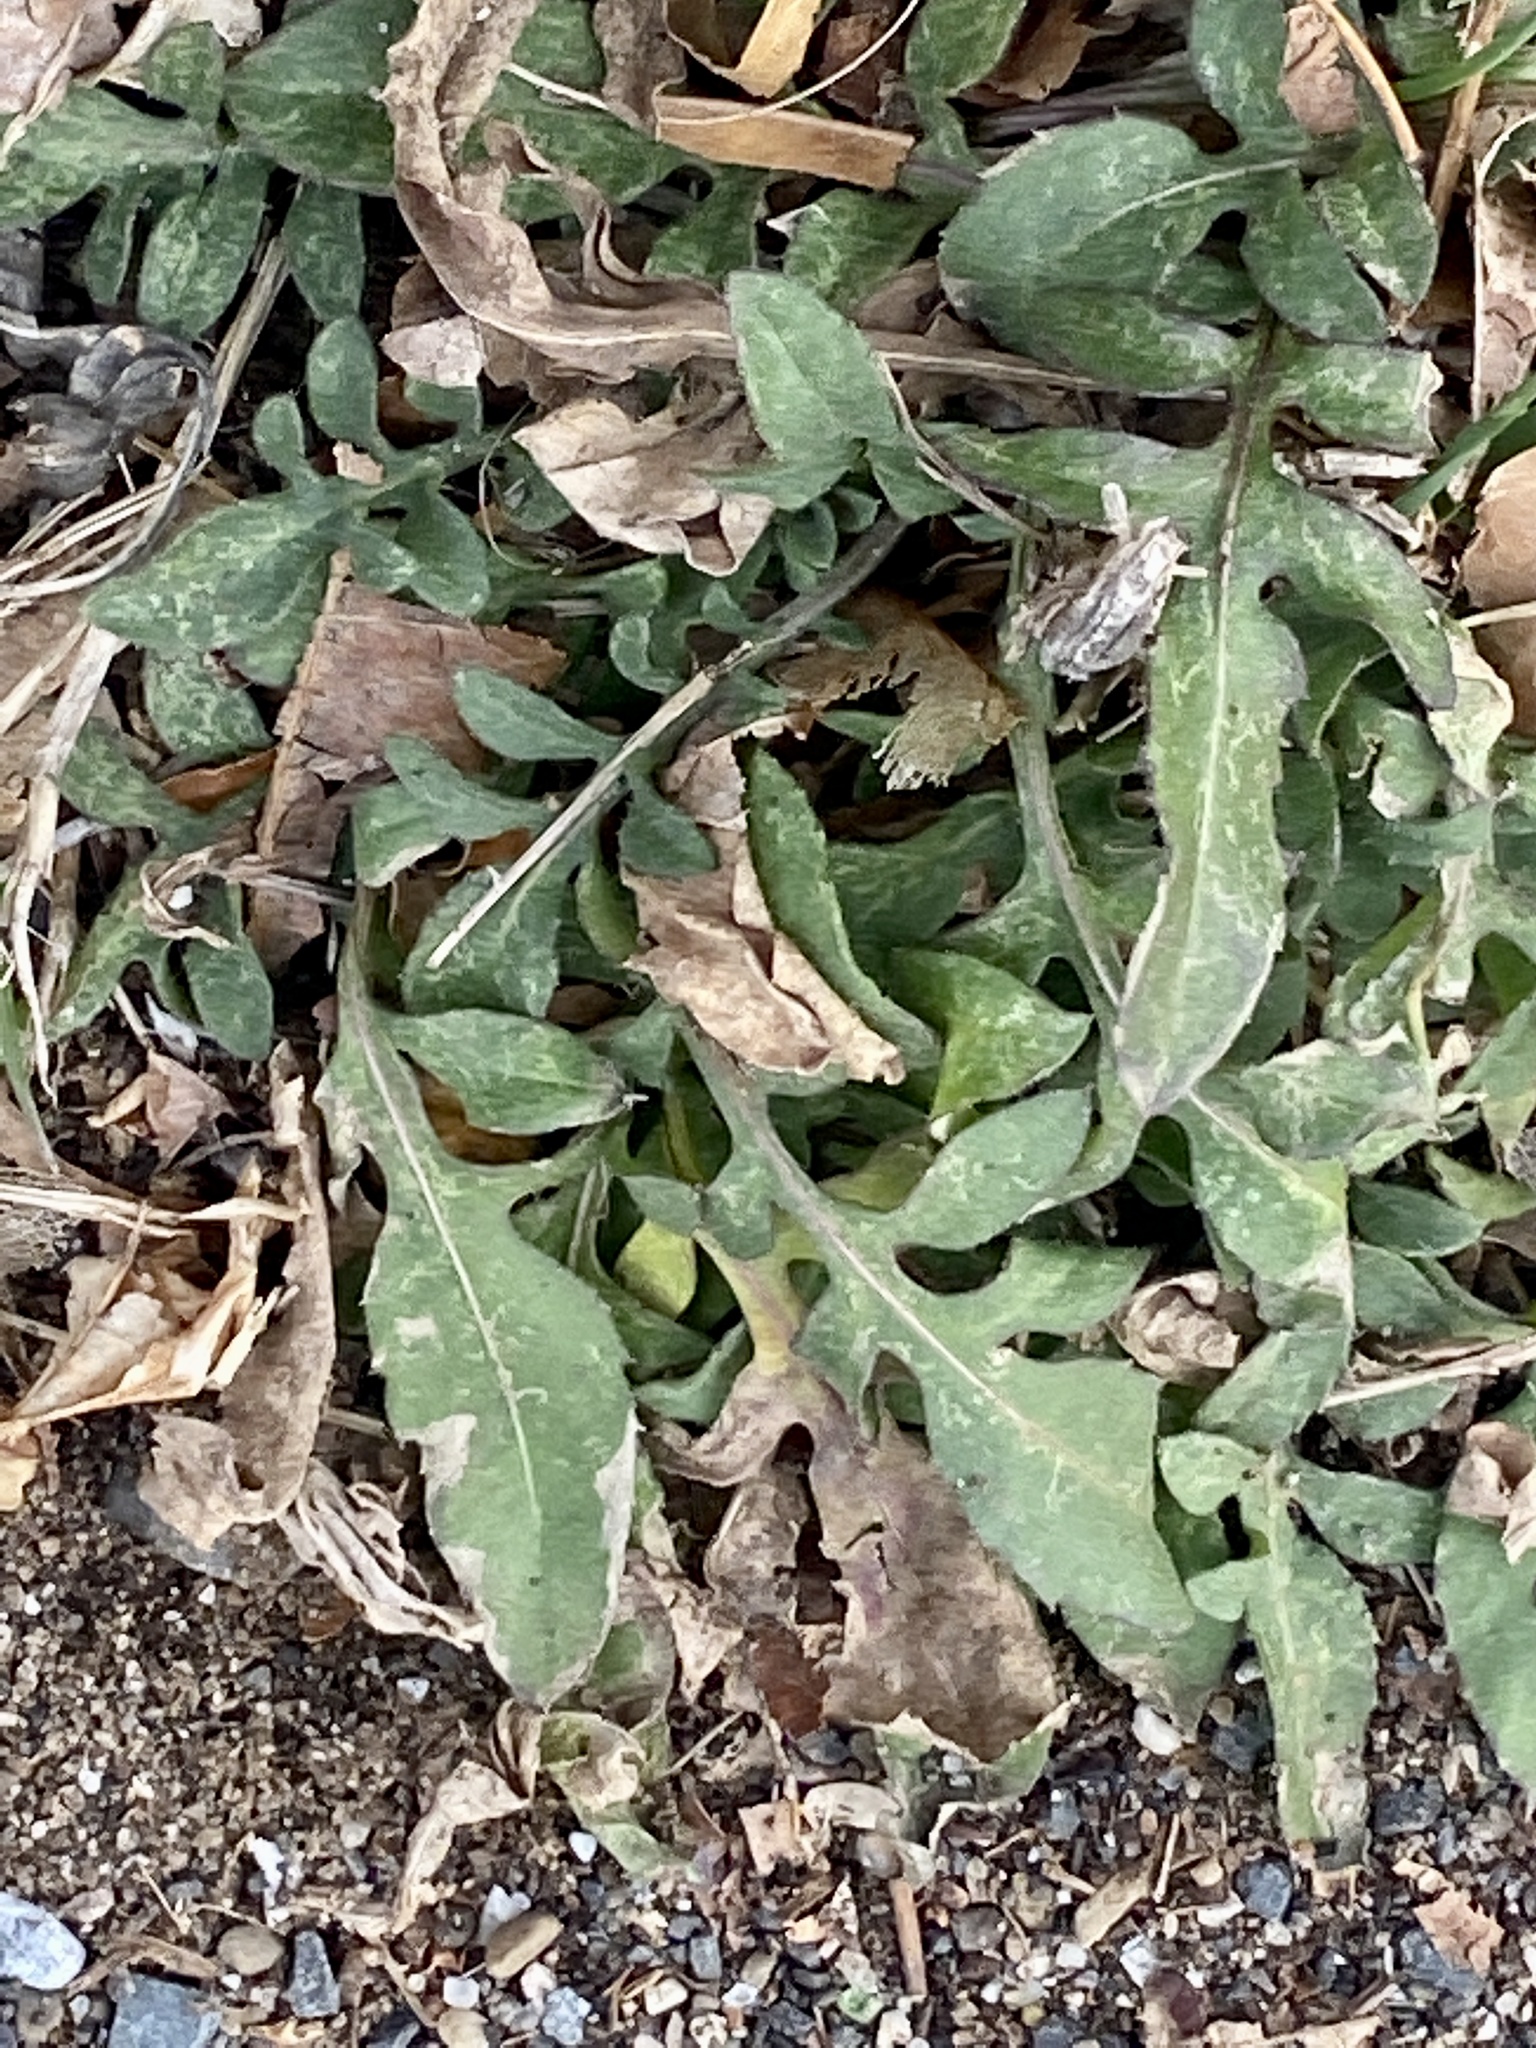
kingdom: Plantae
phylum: Tracheophyta
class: Magnoliopsida
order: Asterales
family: Asteraceae
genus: Centaurea
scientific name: Centaurea stoebe
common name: Spotted knapweed
